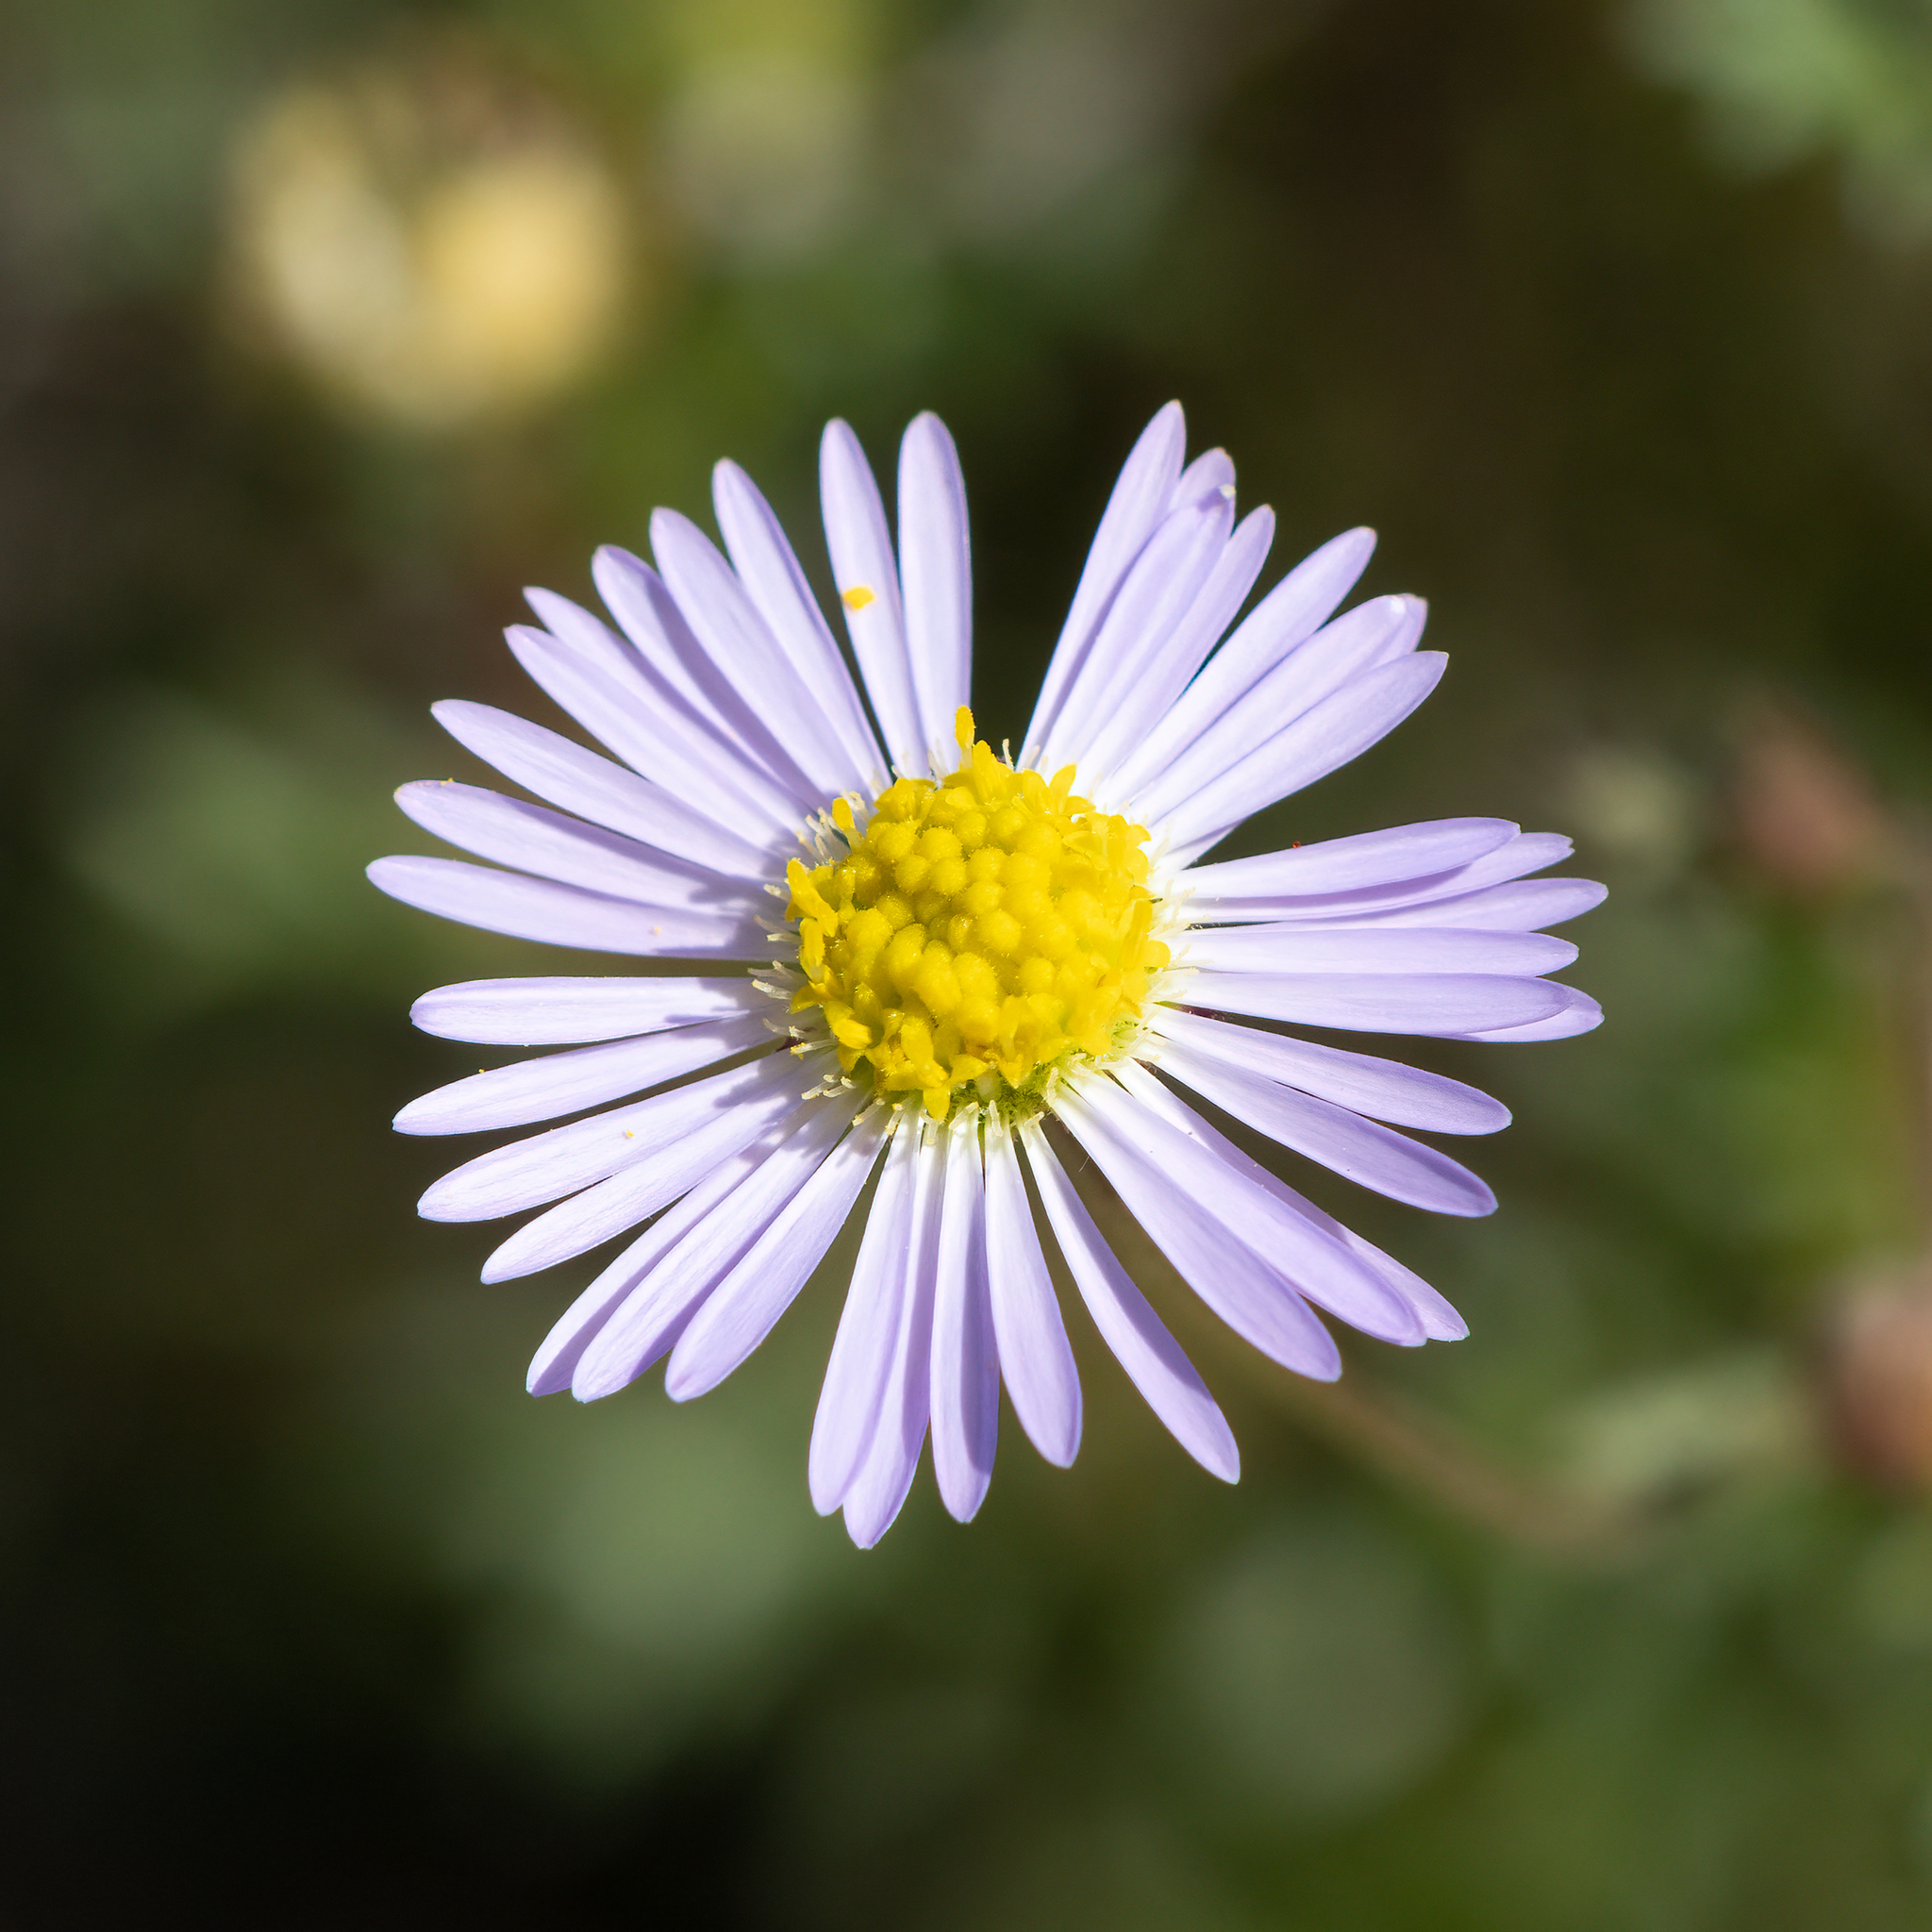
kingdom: Plantae
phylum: Tracheophyta
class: Magnoliopsida
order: Asterales
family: Asteraceae
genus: Brachyscome
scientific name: Brachyscome ciliaris
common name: Variable daisy
